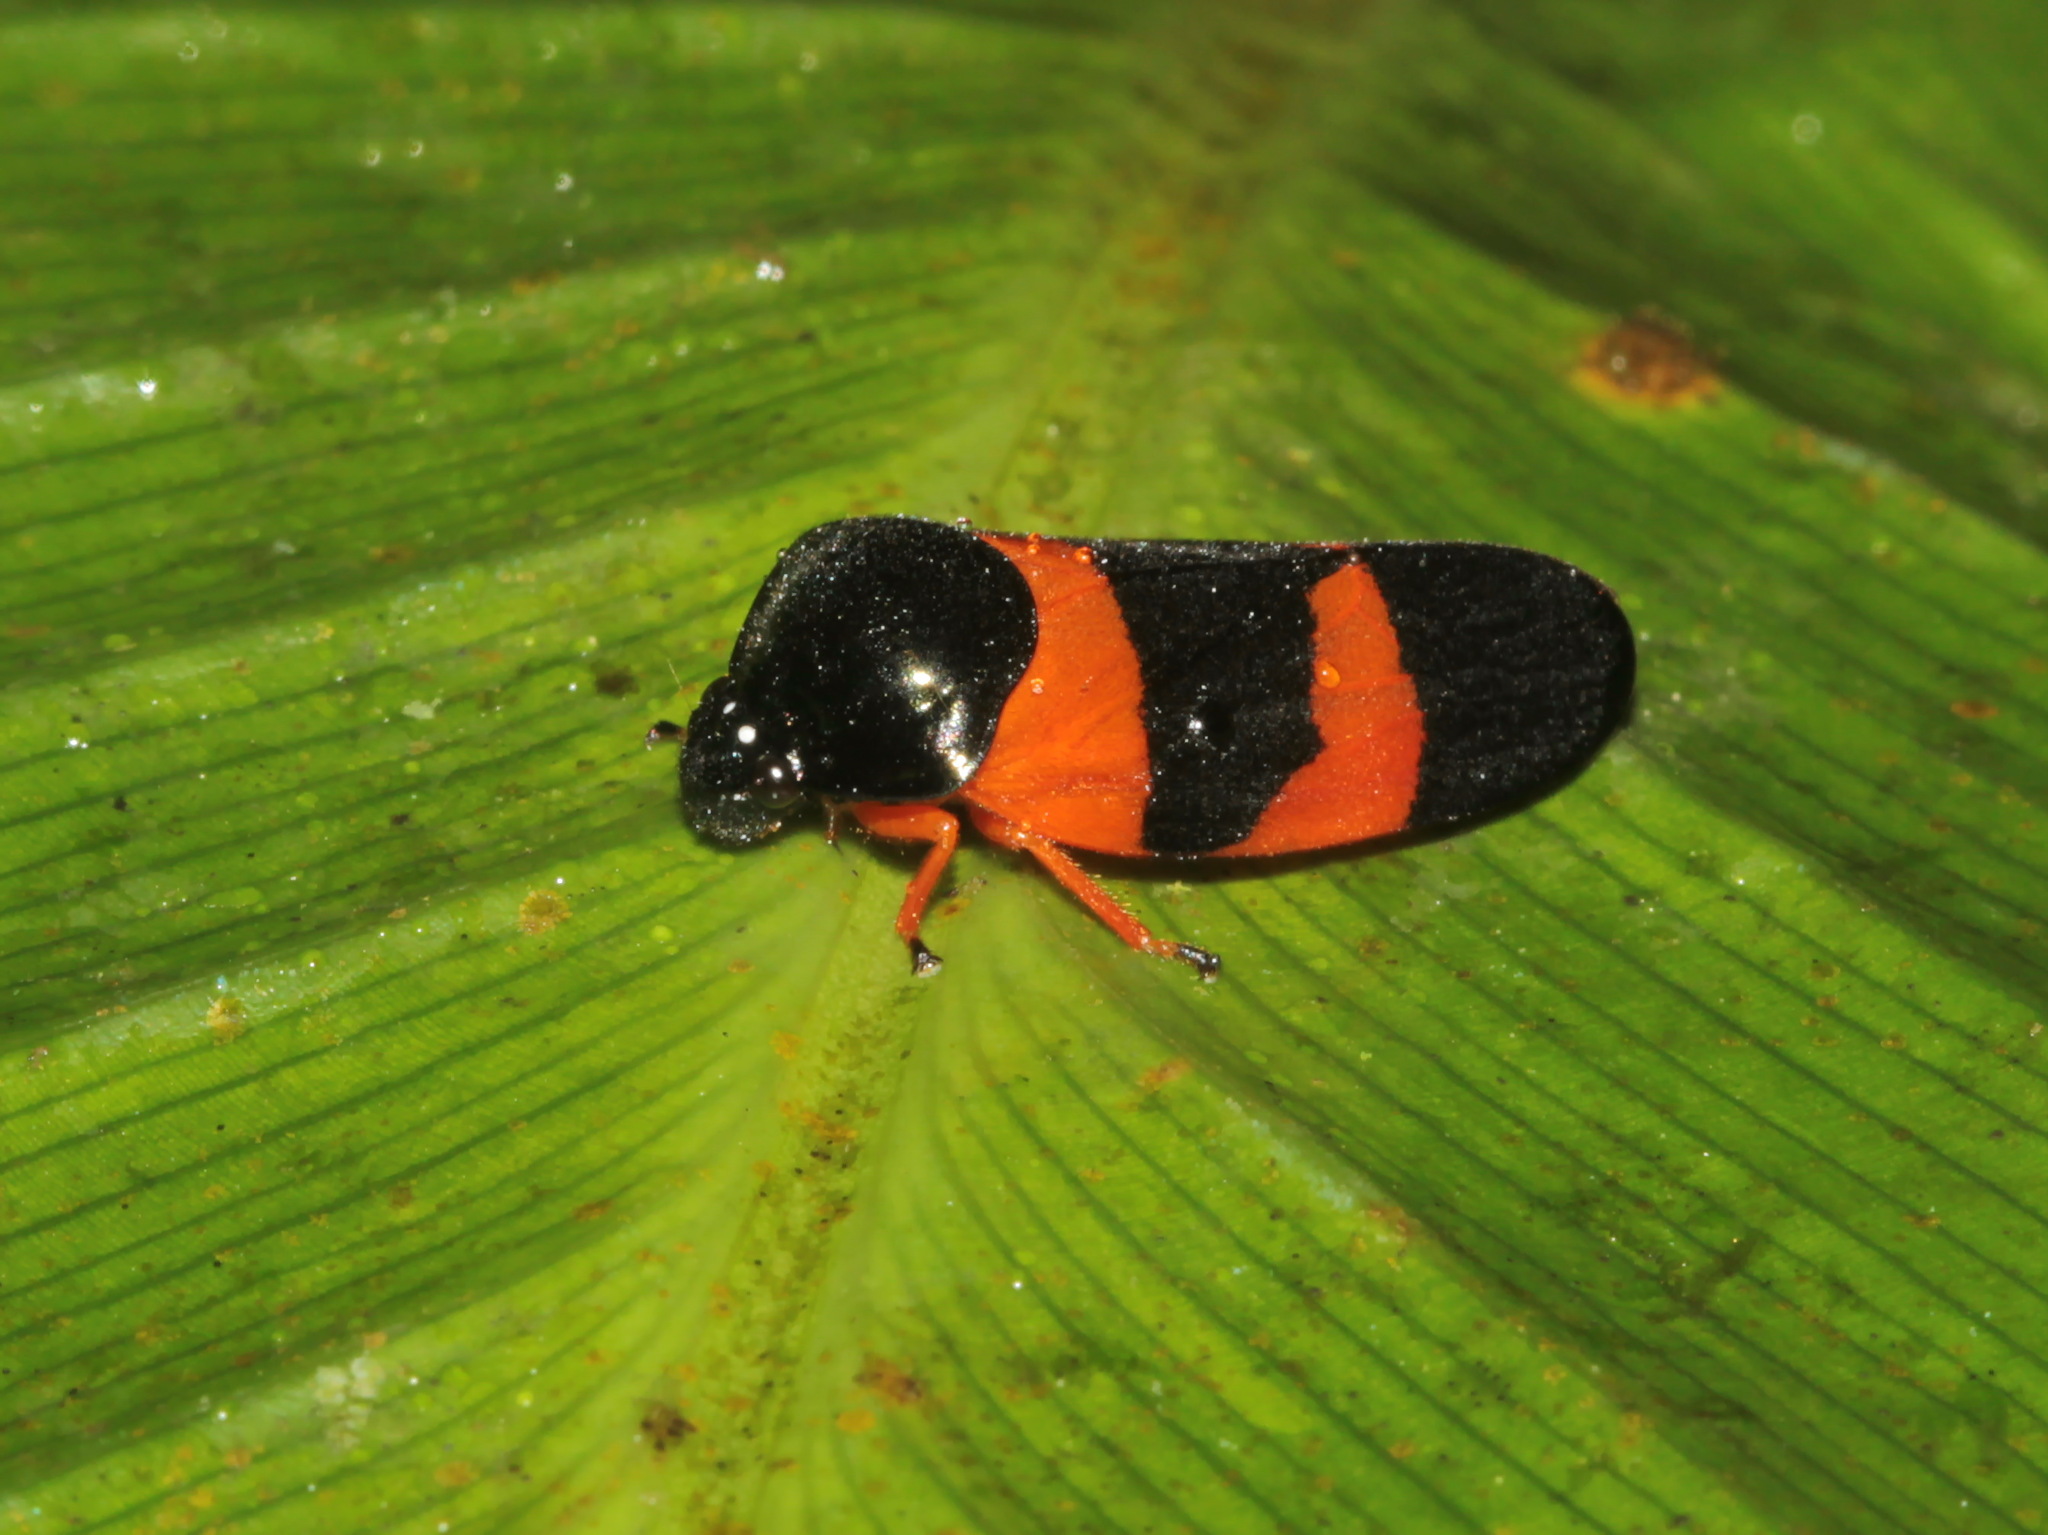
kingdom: Animalia
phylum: Arthropoda
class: Insecta
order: Hemiptera
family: Cercopidae
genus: Cosmoscarta
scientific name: Cosmoscarta chrysomelaena
